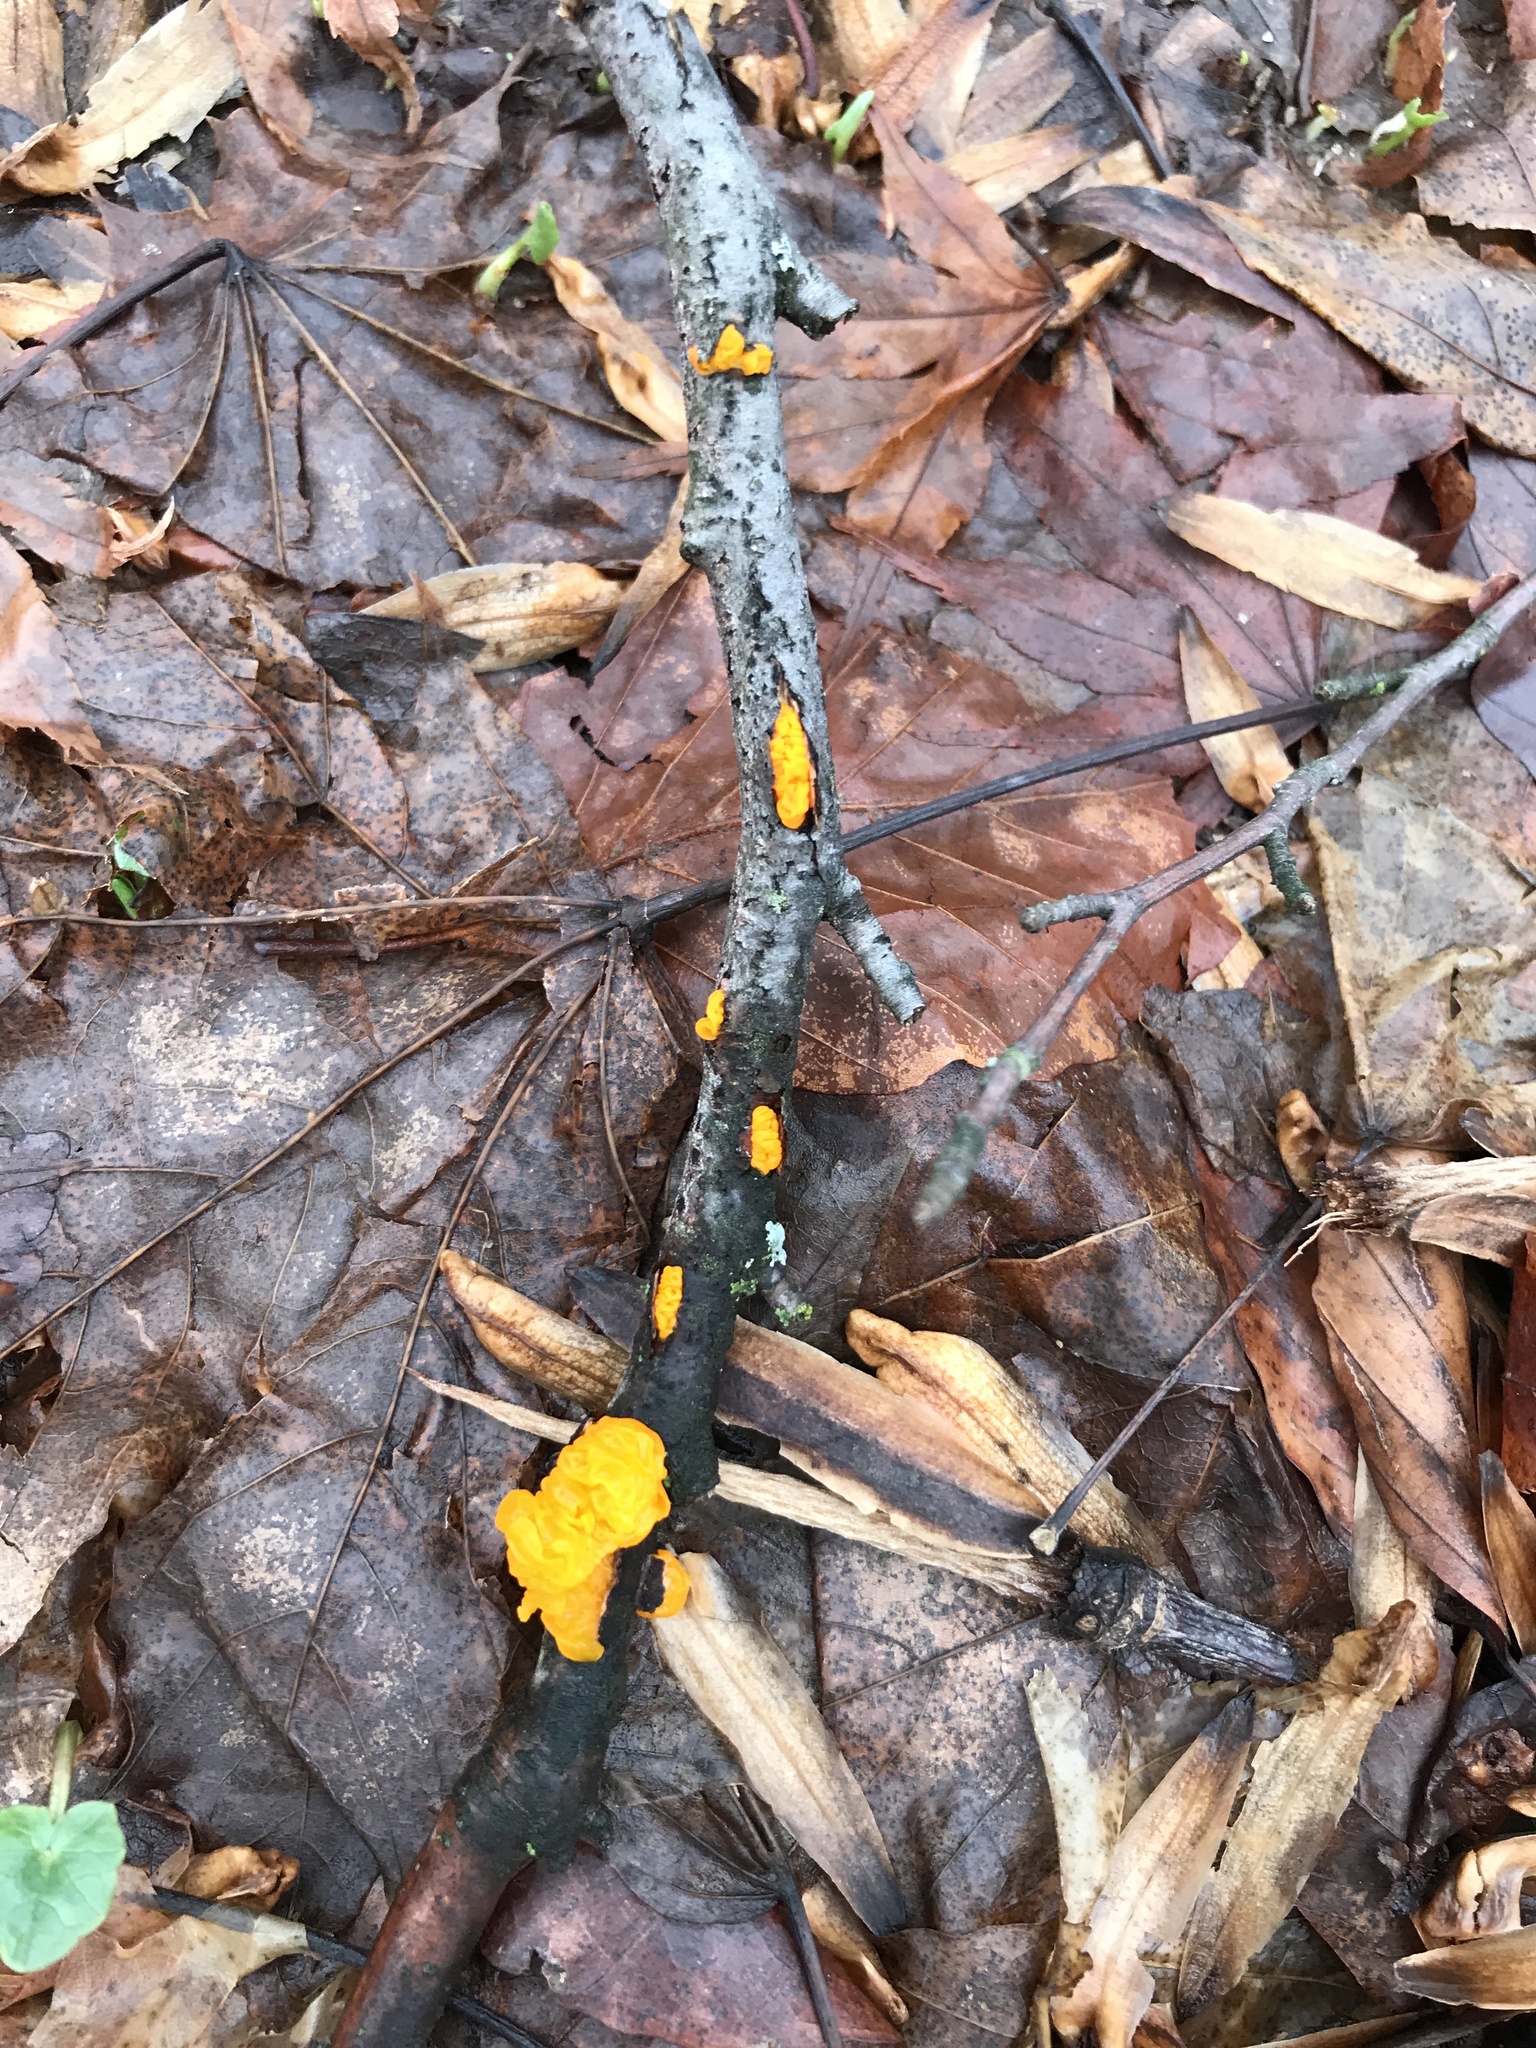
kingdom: Fungi
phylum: Basidiomycota
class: Tremellomycetes
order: Tremellales
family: Tremellaceae
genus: Tremella
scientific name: Tremella mesenterica
